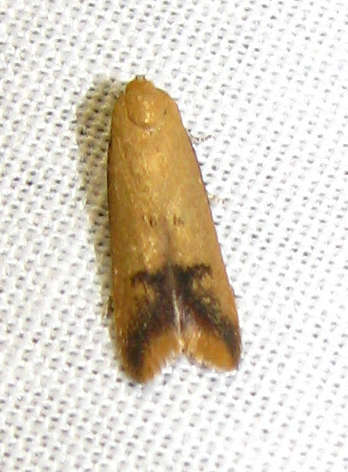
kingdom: Animalia
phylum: Arthropoda
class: Insecta
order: Lepidoptera
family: Oecophoridae
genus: Tachystola
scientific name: Tachystola hemisema
